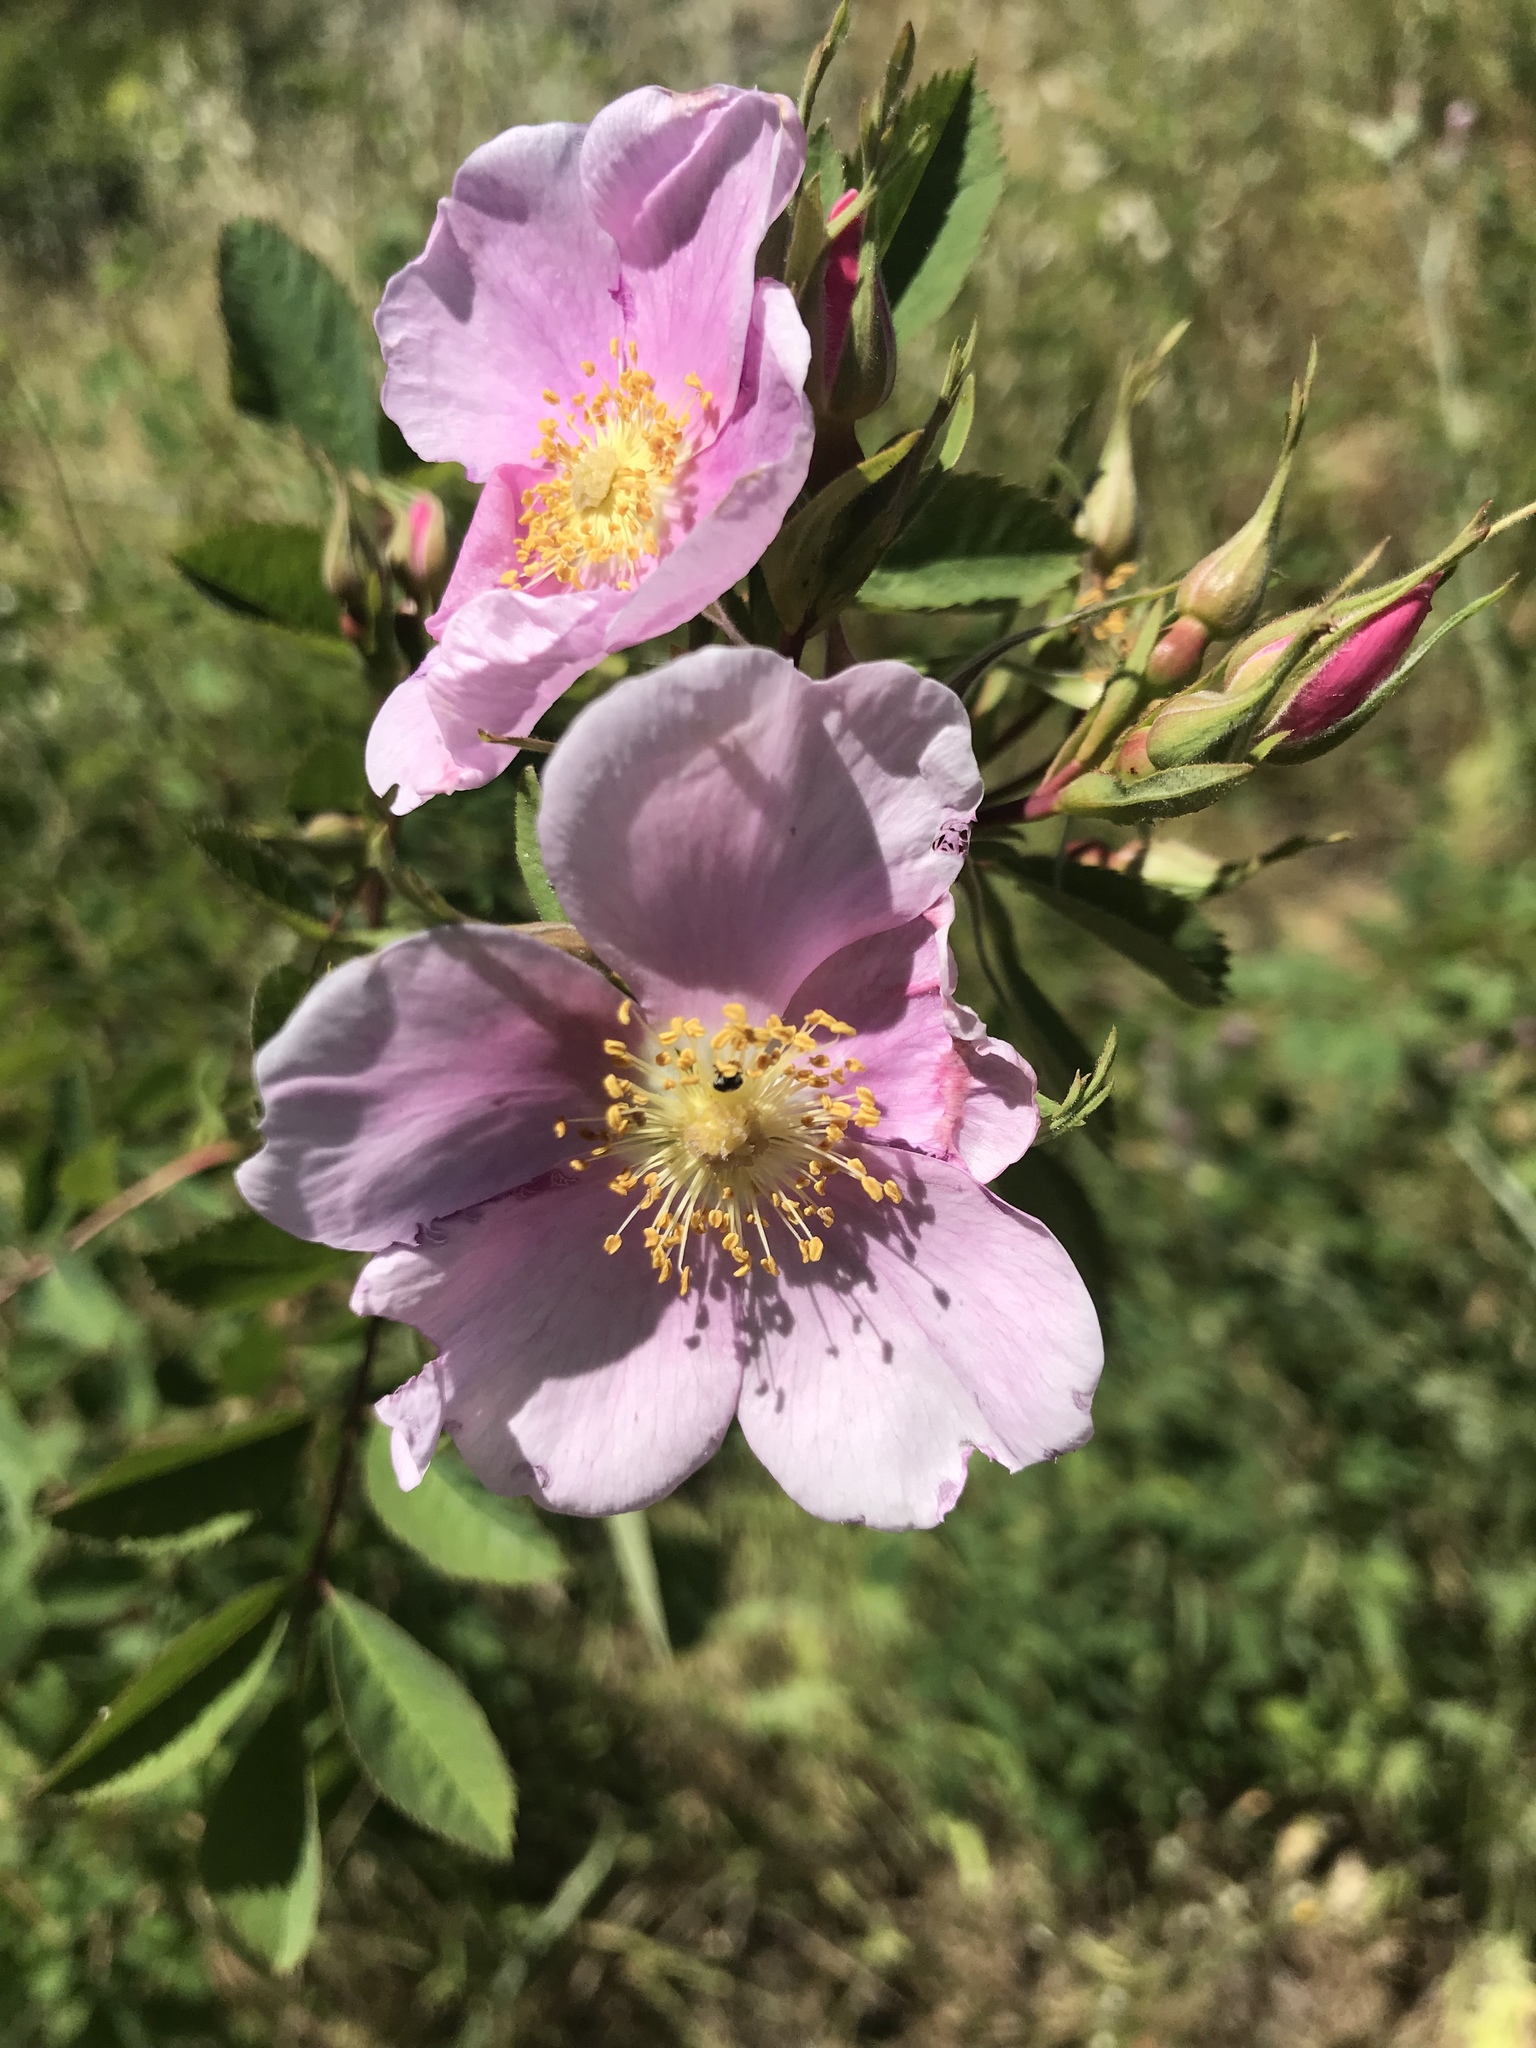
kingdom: Plantae
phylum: Tracheophyta
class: Magnoliopsida
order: Rosales
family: Rosaceae
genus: Rosa
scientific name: Rosa californica
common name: California rose
